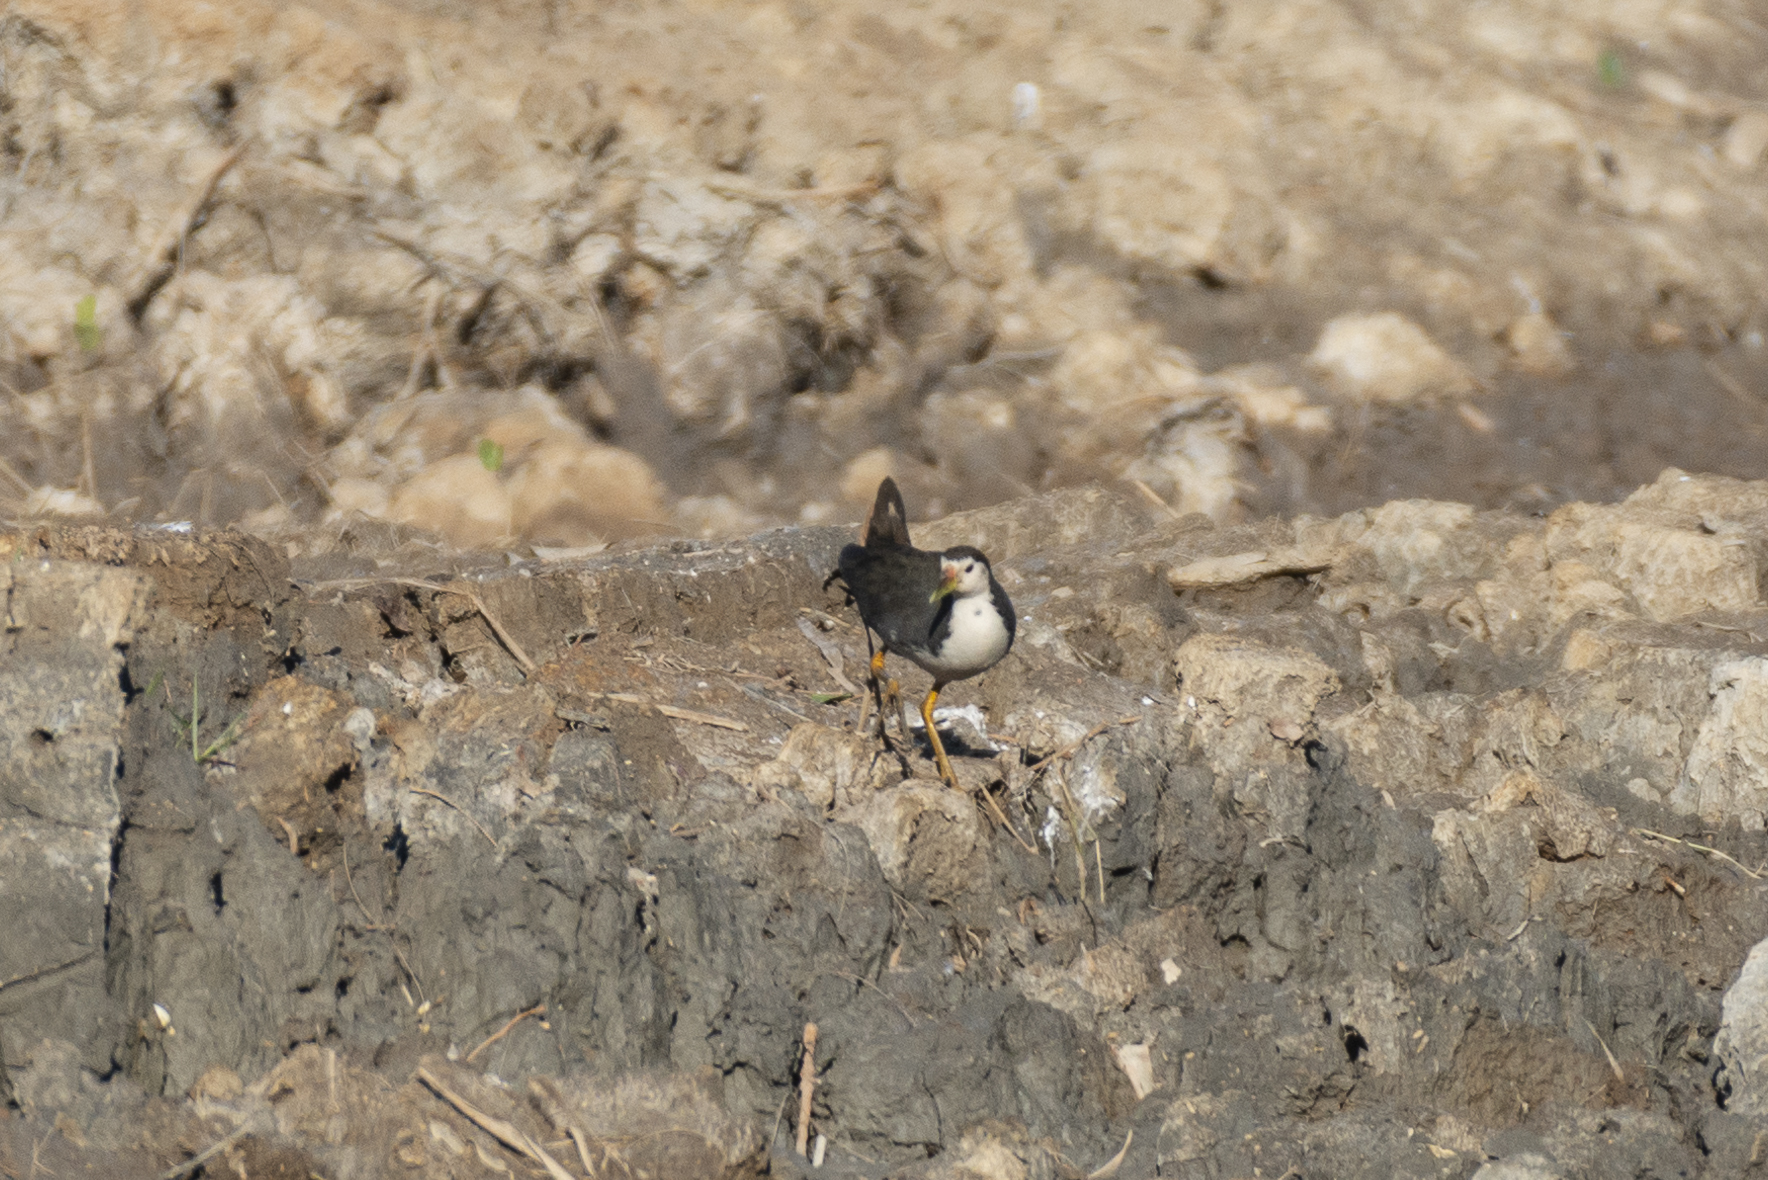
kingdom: Animalia
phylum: Chordata
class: Aves
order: Gruiformes
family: Rallidae
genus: Amaurornis
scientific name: Amaurornis phoenicurus
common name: White-breasted waterhen
